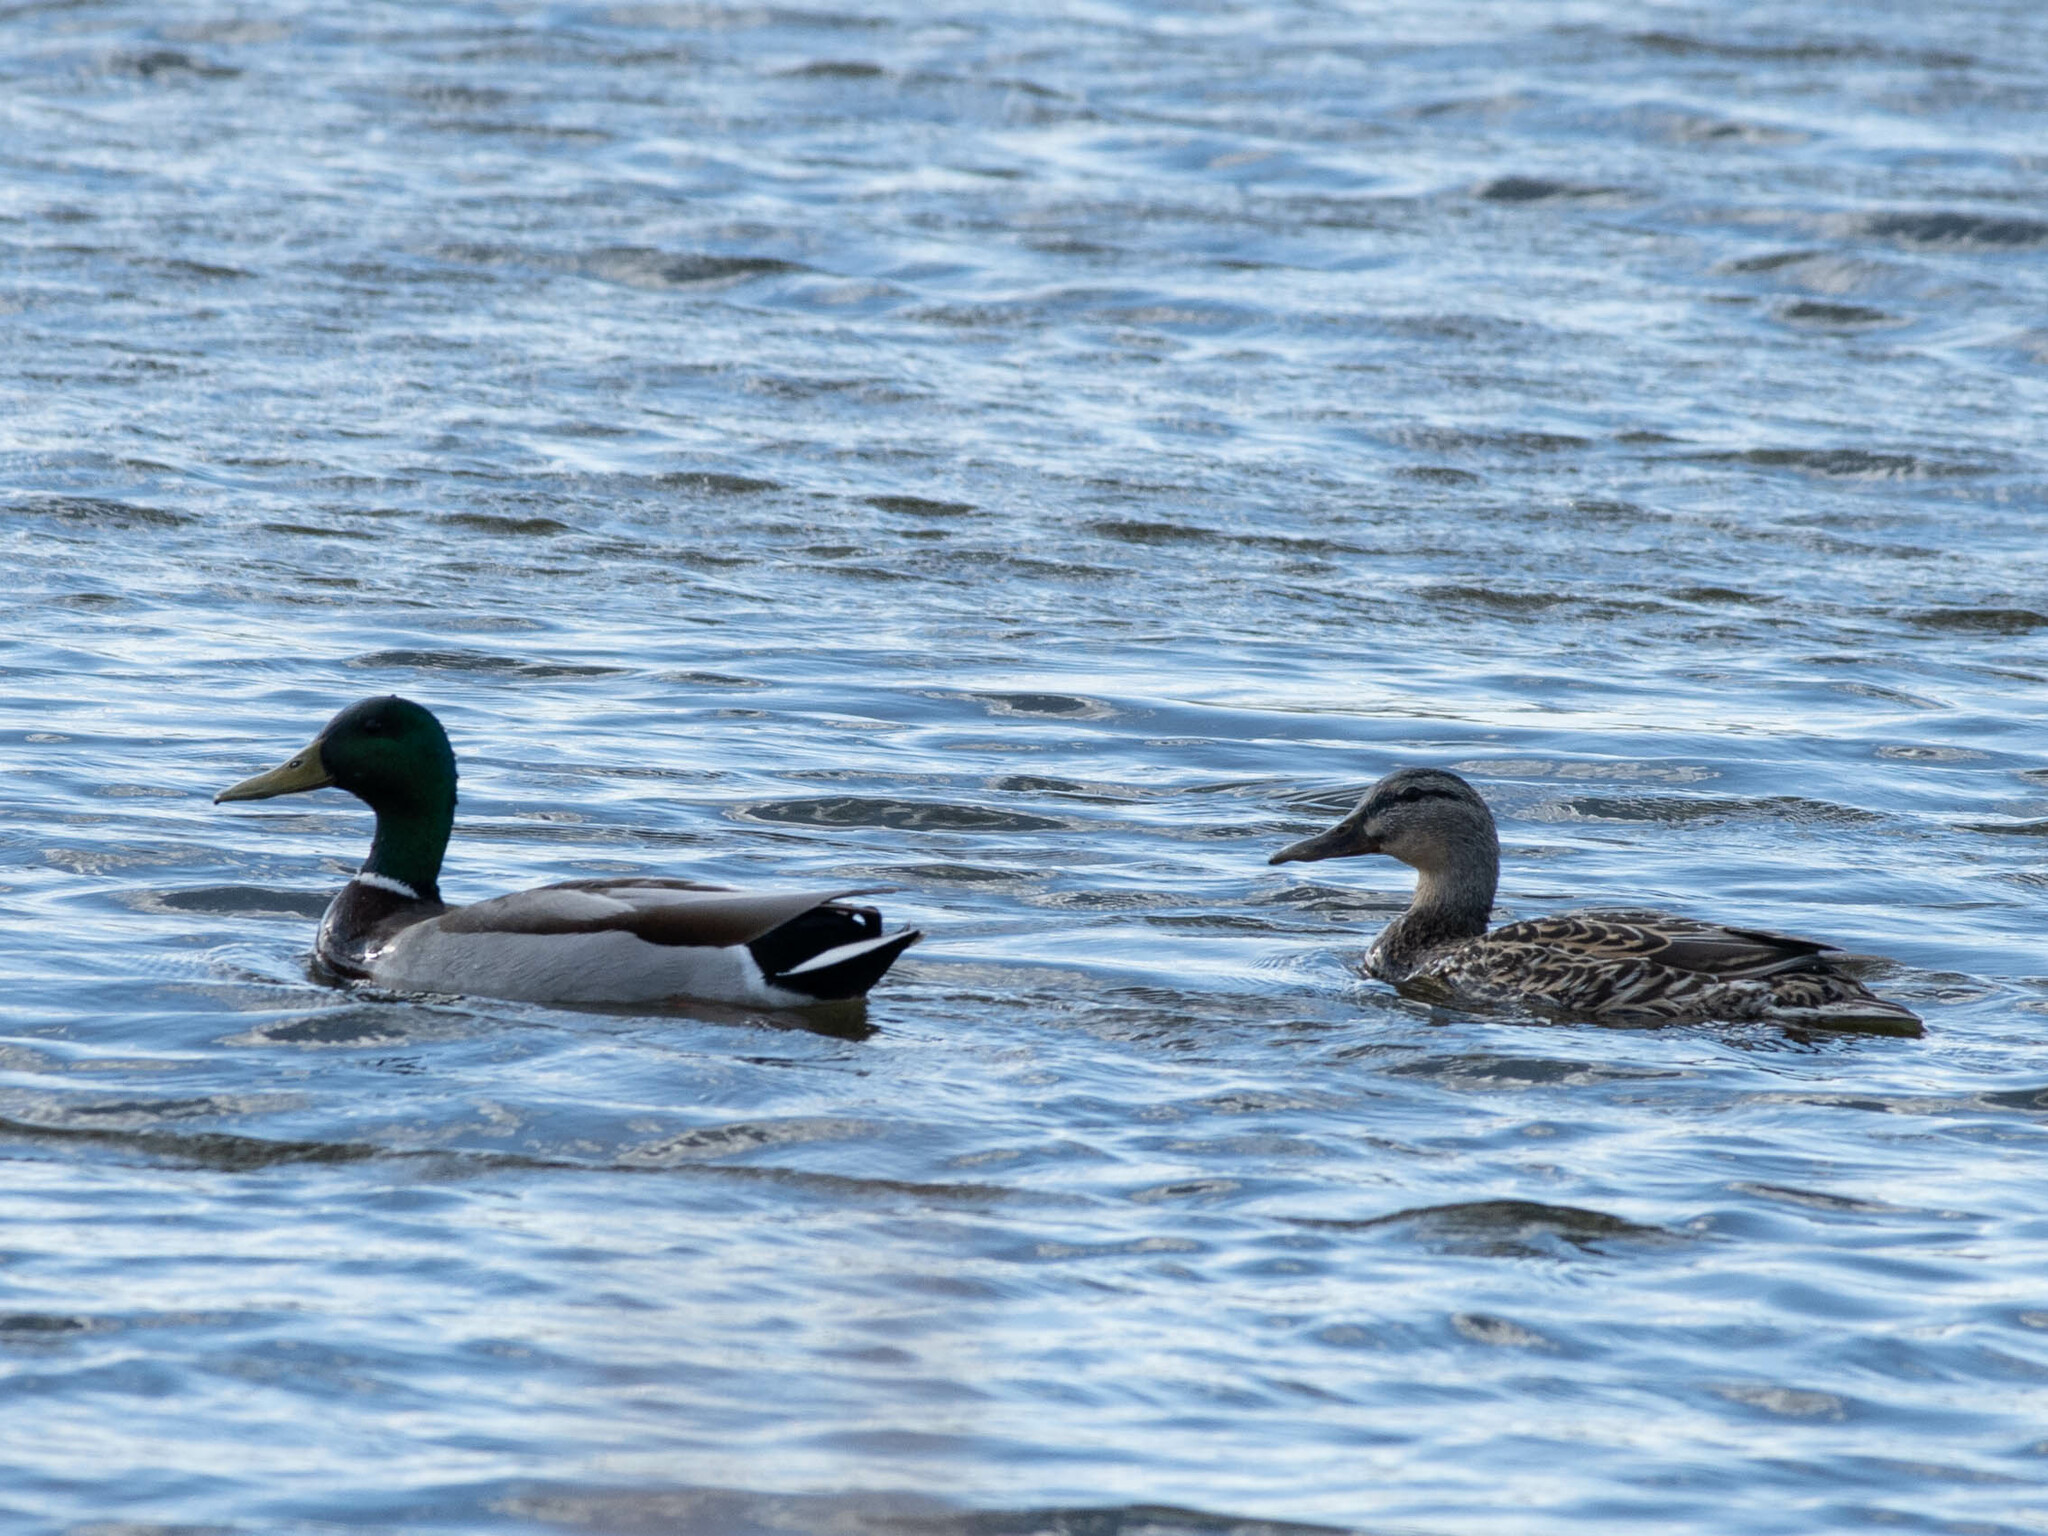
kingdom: Animalia
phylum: Chordata
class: Aves
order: Anseriformes
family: Anatidae
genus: Anas
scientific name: Anas platyrhynchos
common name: Mallard
